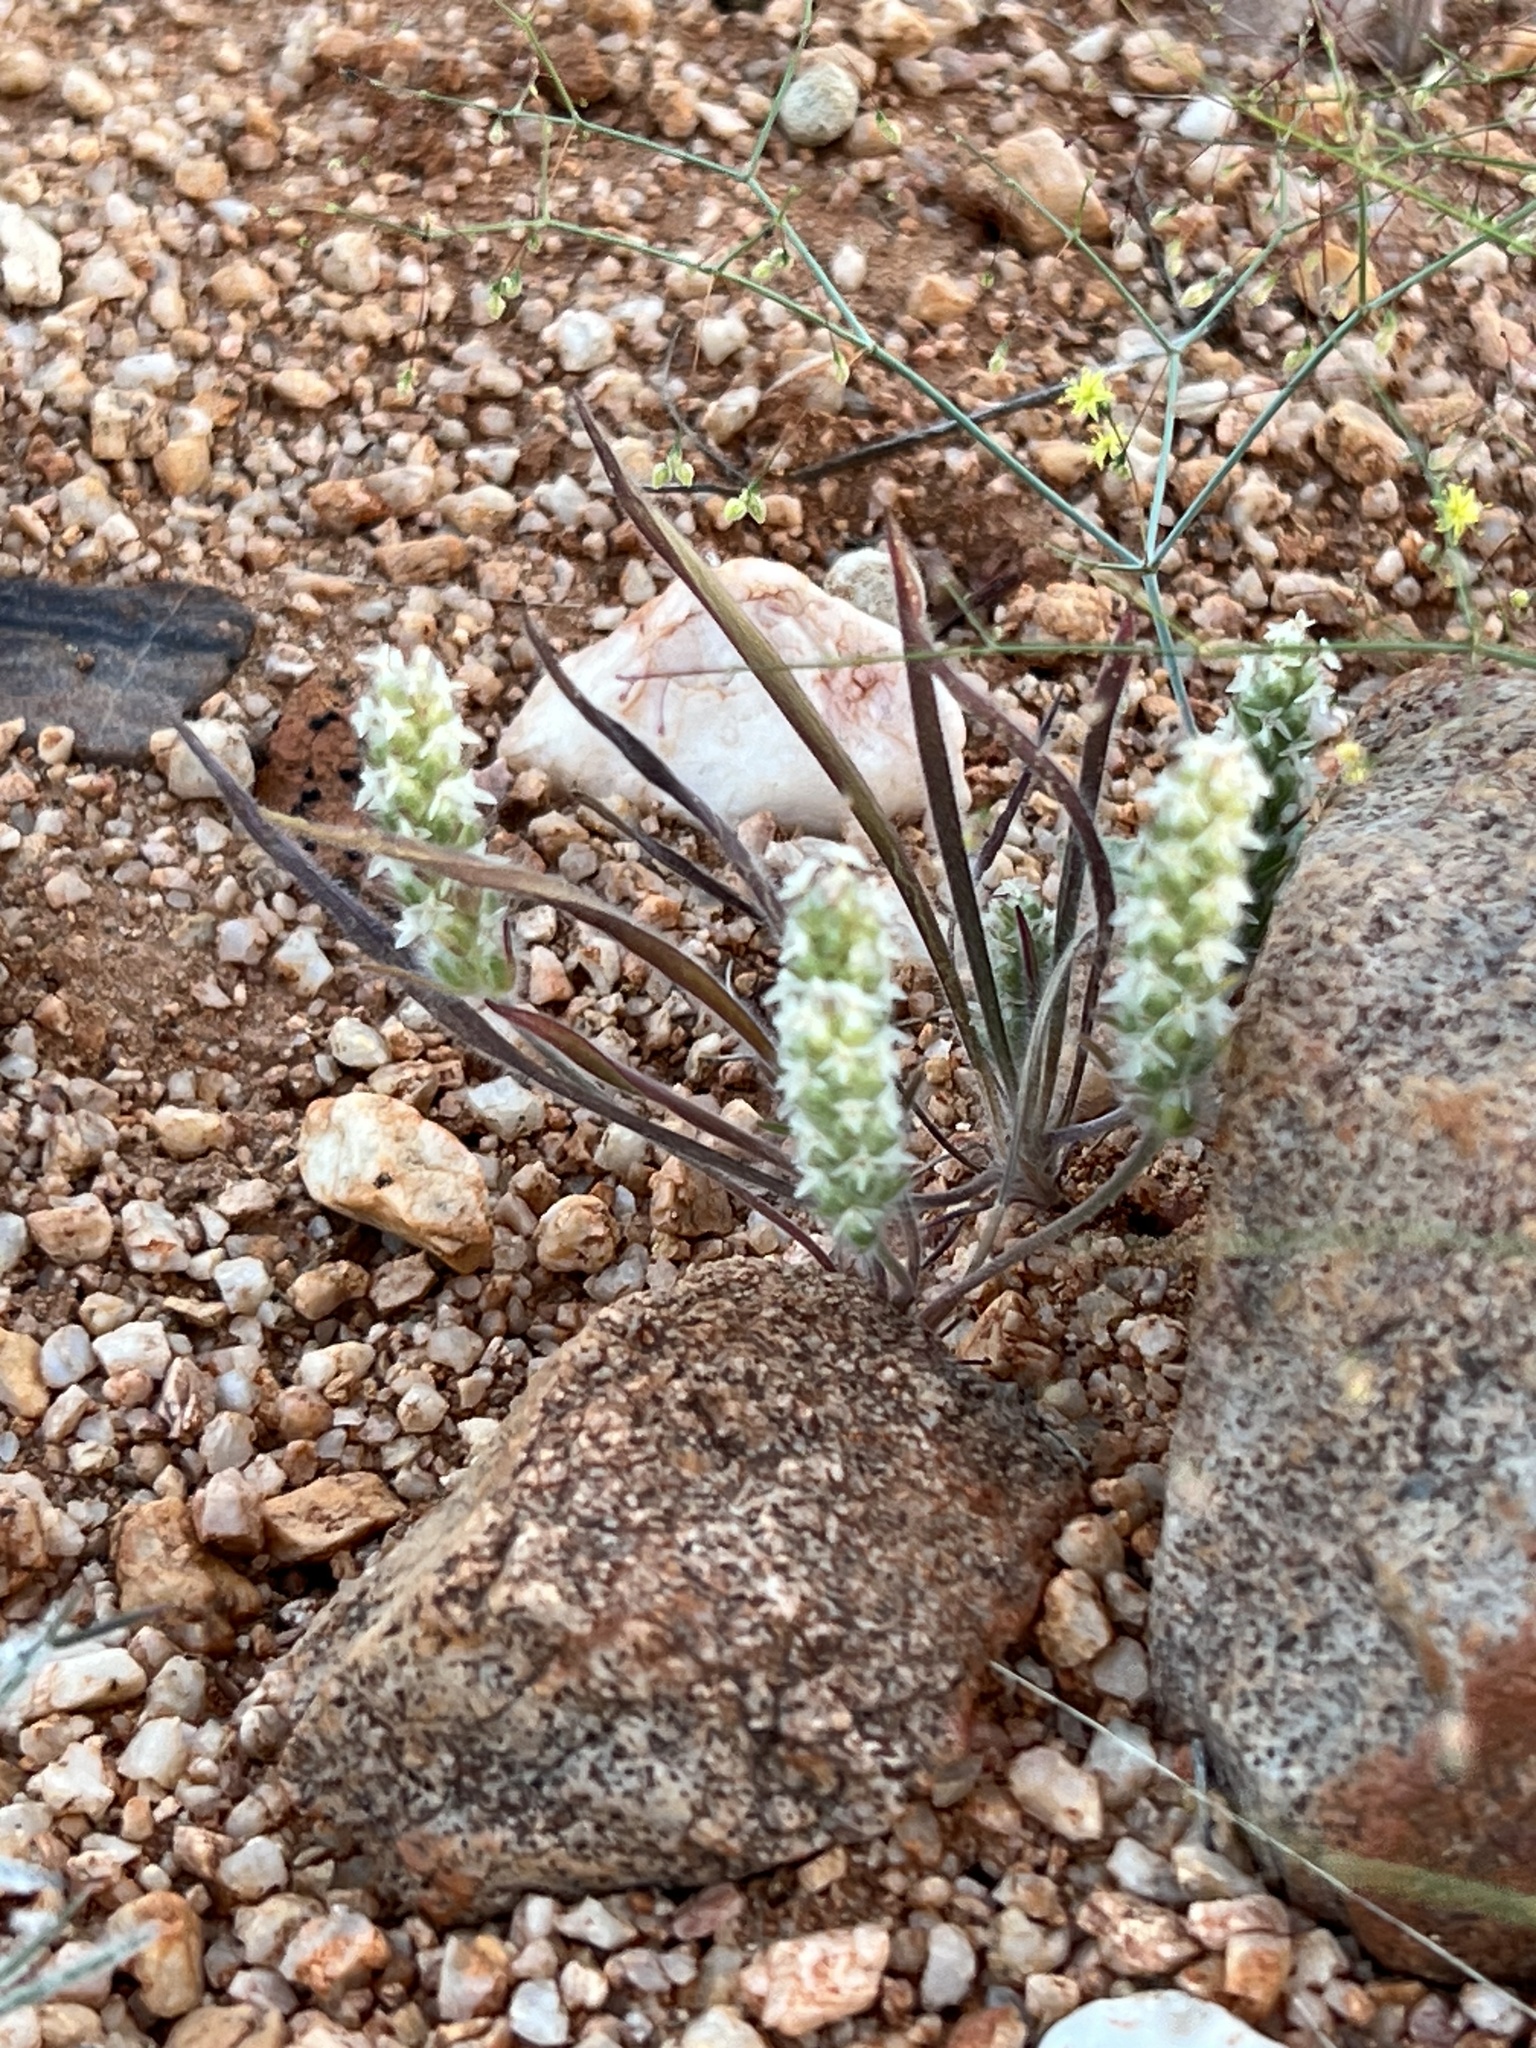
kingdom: Plantae
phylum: Tracheophyta
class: Magnoliopsida
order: Lamiales
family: Plantaginaceae
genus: Plantago
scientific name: Plantago patagonica
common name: Patagonia indian-wheat
